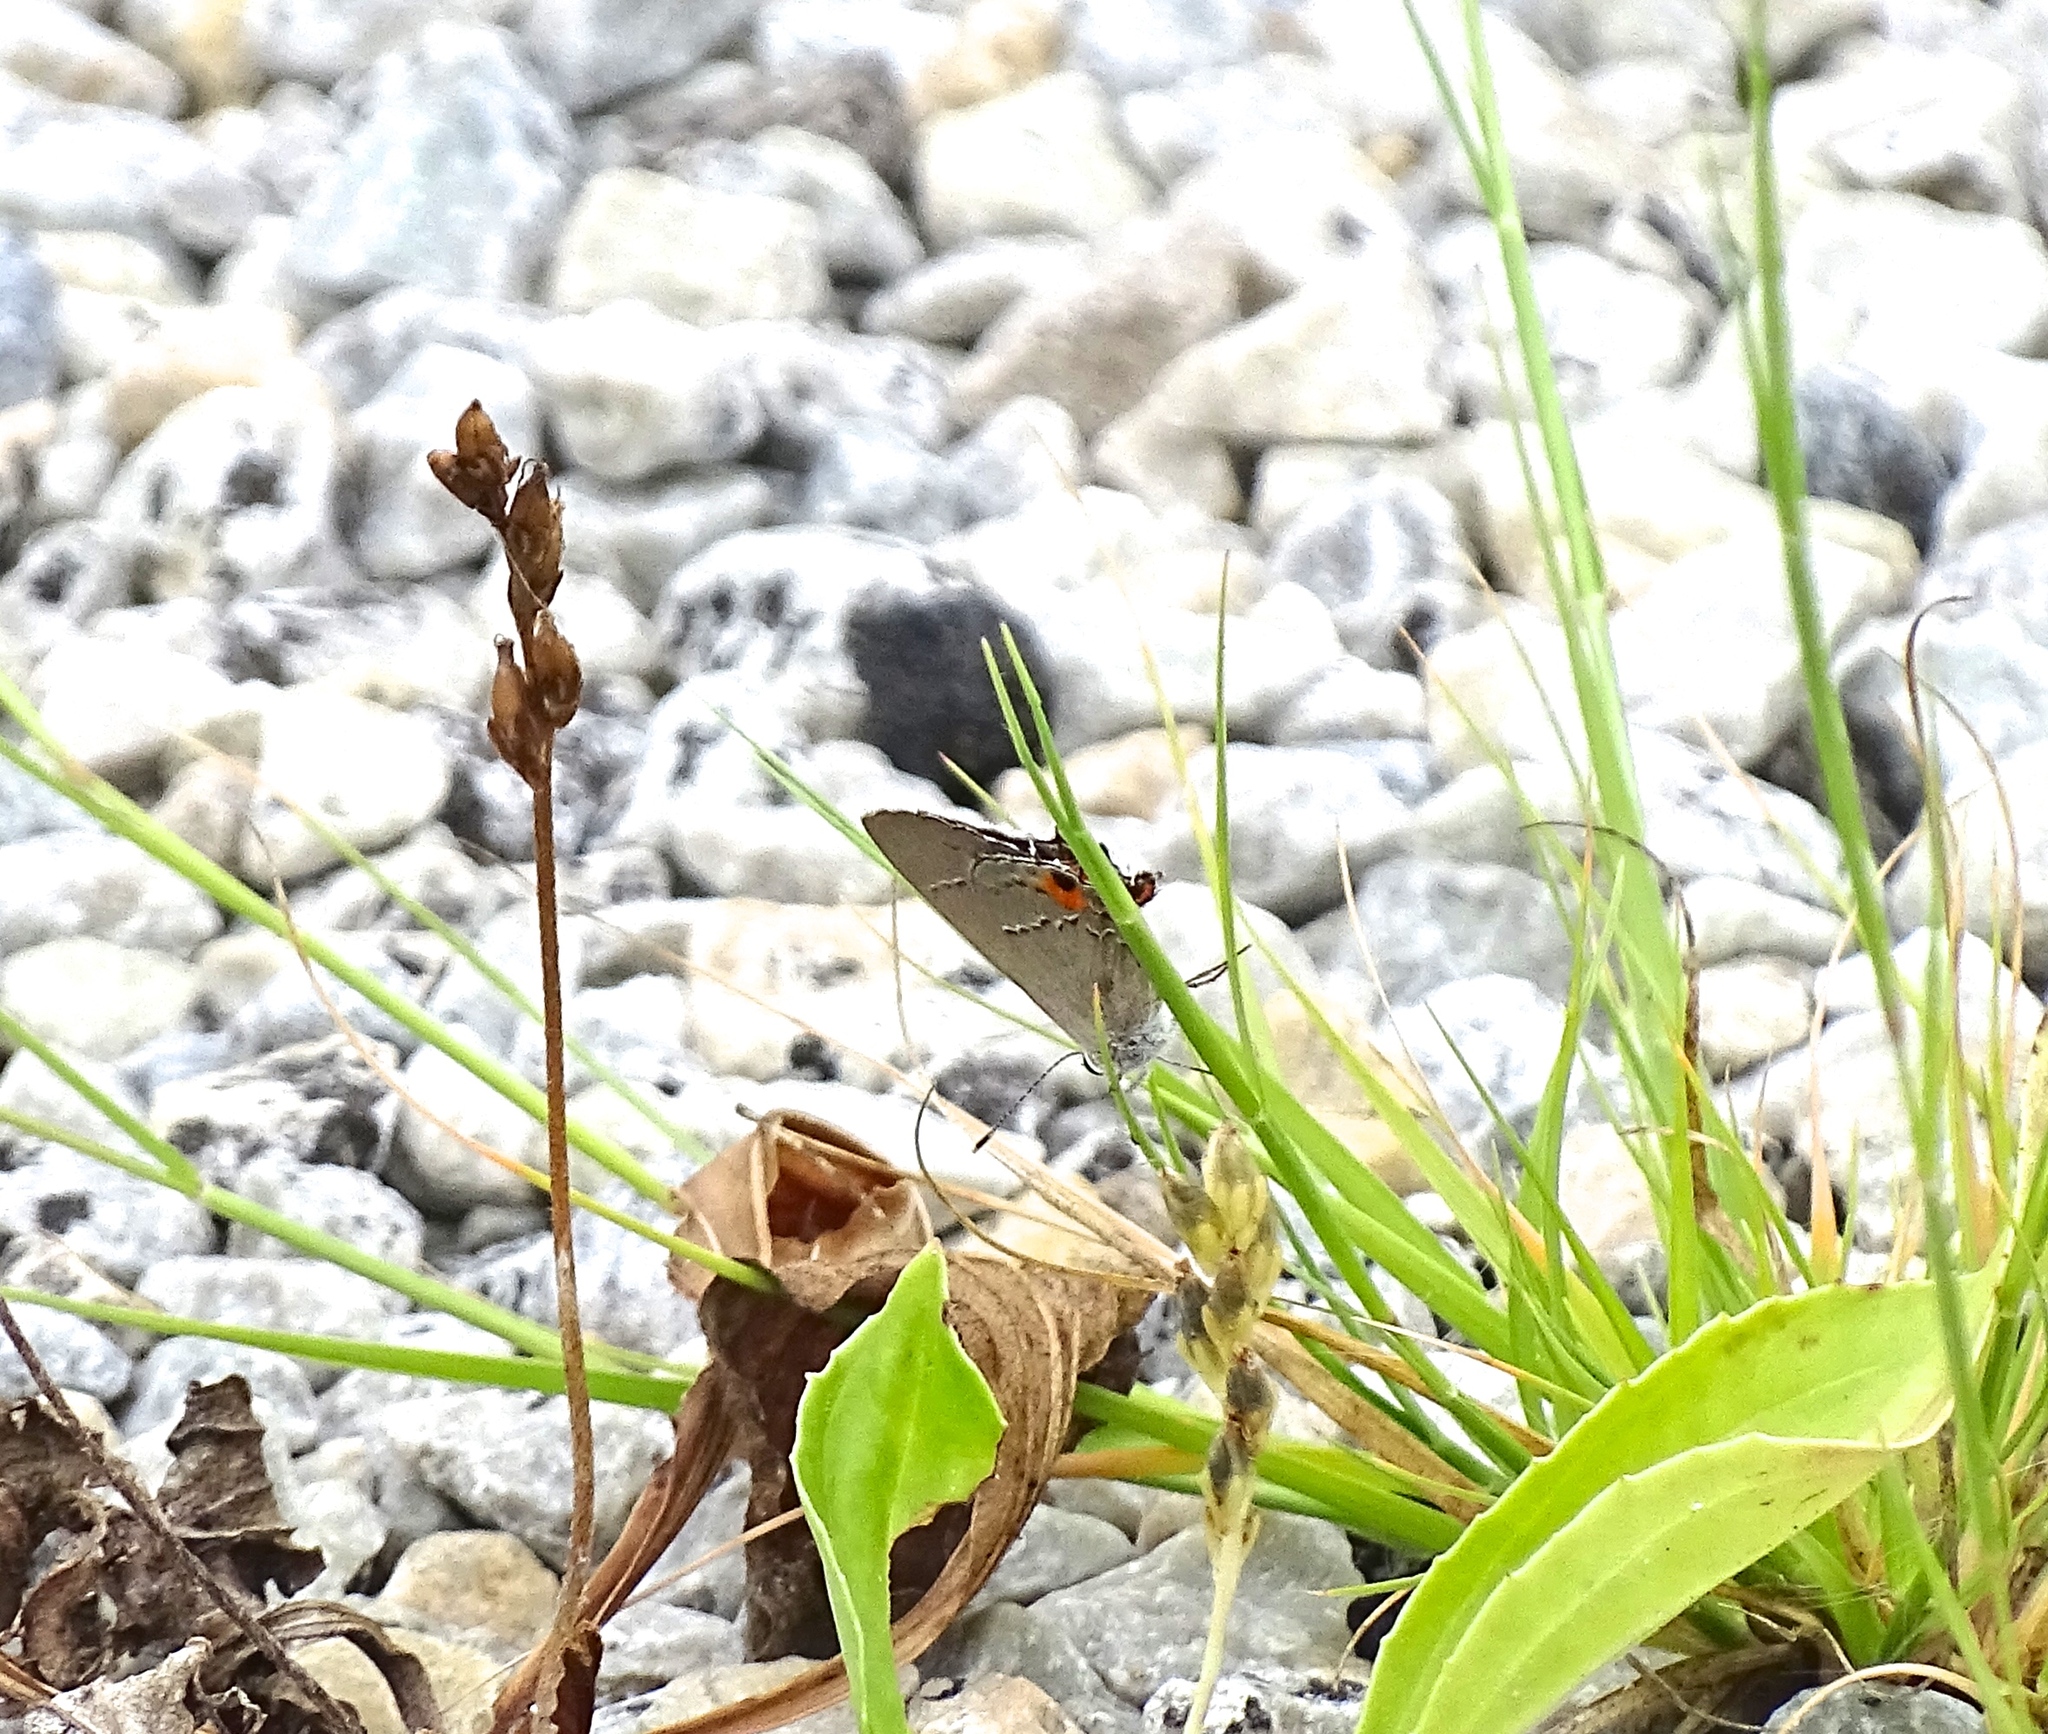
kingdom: Animalia
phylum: Arthropoda
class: Insecta
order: Lepidoptera
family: Lycaenidae
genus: Strymon
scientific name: Strymon melinus
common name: Gray hairstreak
